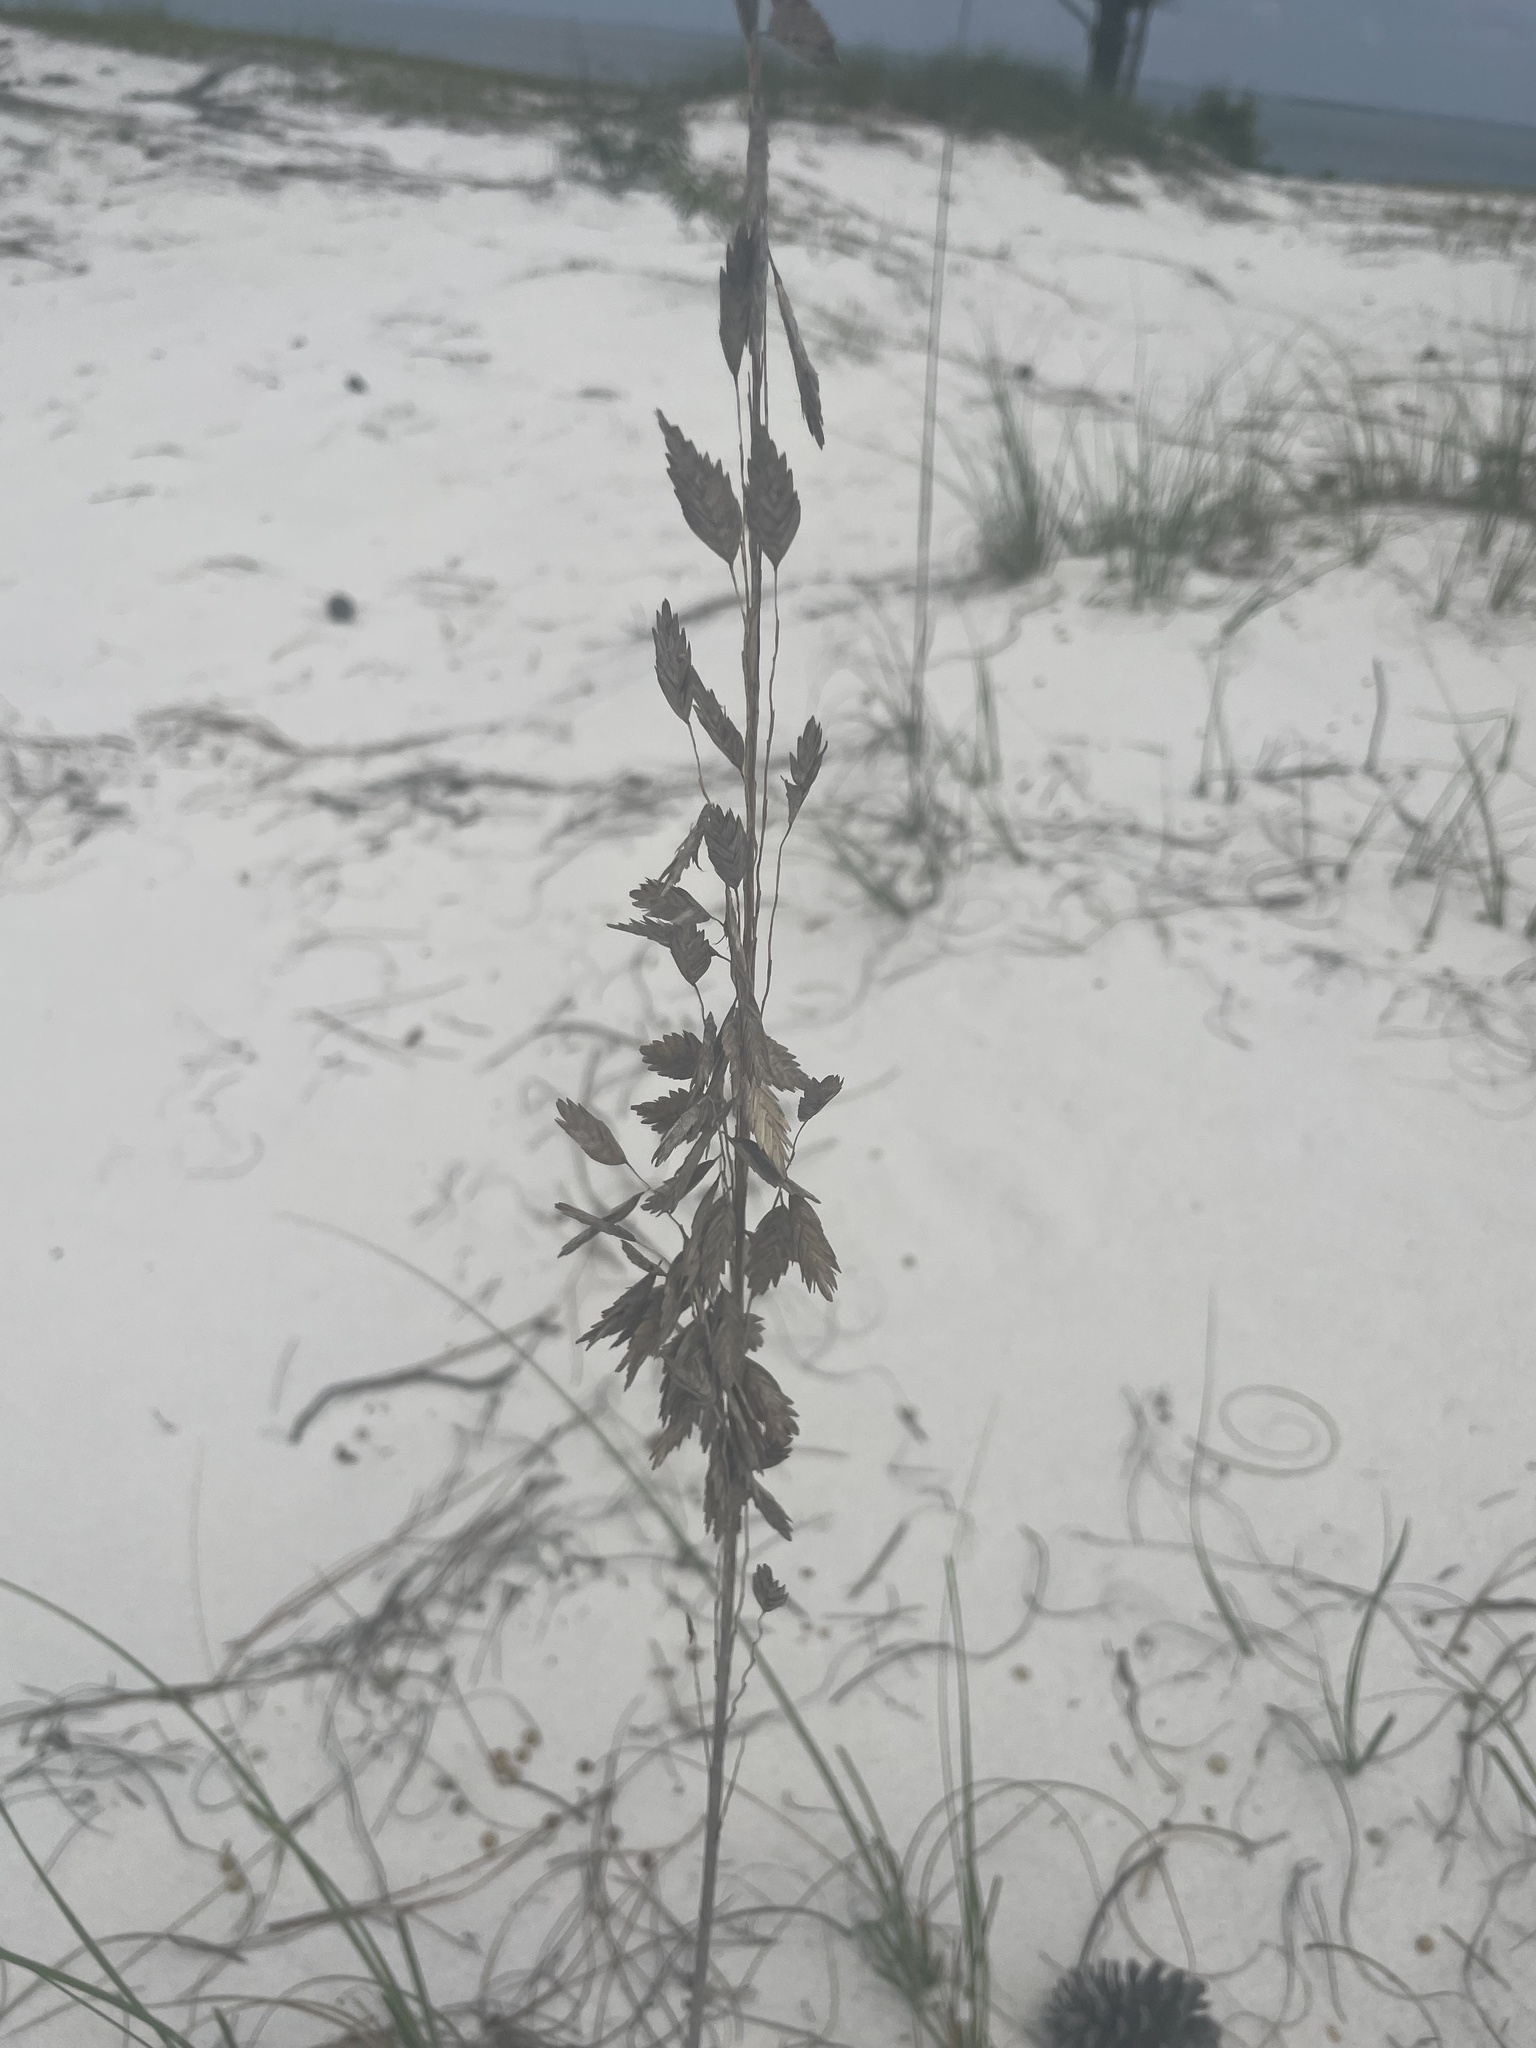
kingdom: Plantae
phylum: Tracheophyta
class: Liliopsida
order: Poales
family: Poaceae
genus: Uniola
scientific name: Uniola paniculata
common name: Seaside-oats
